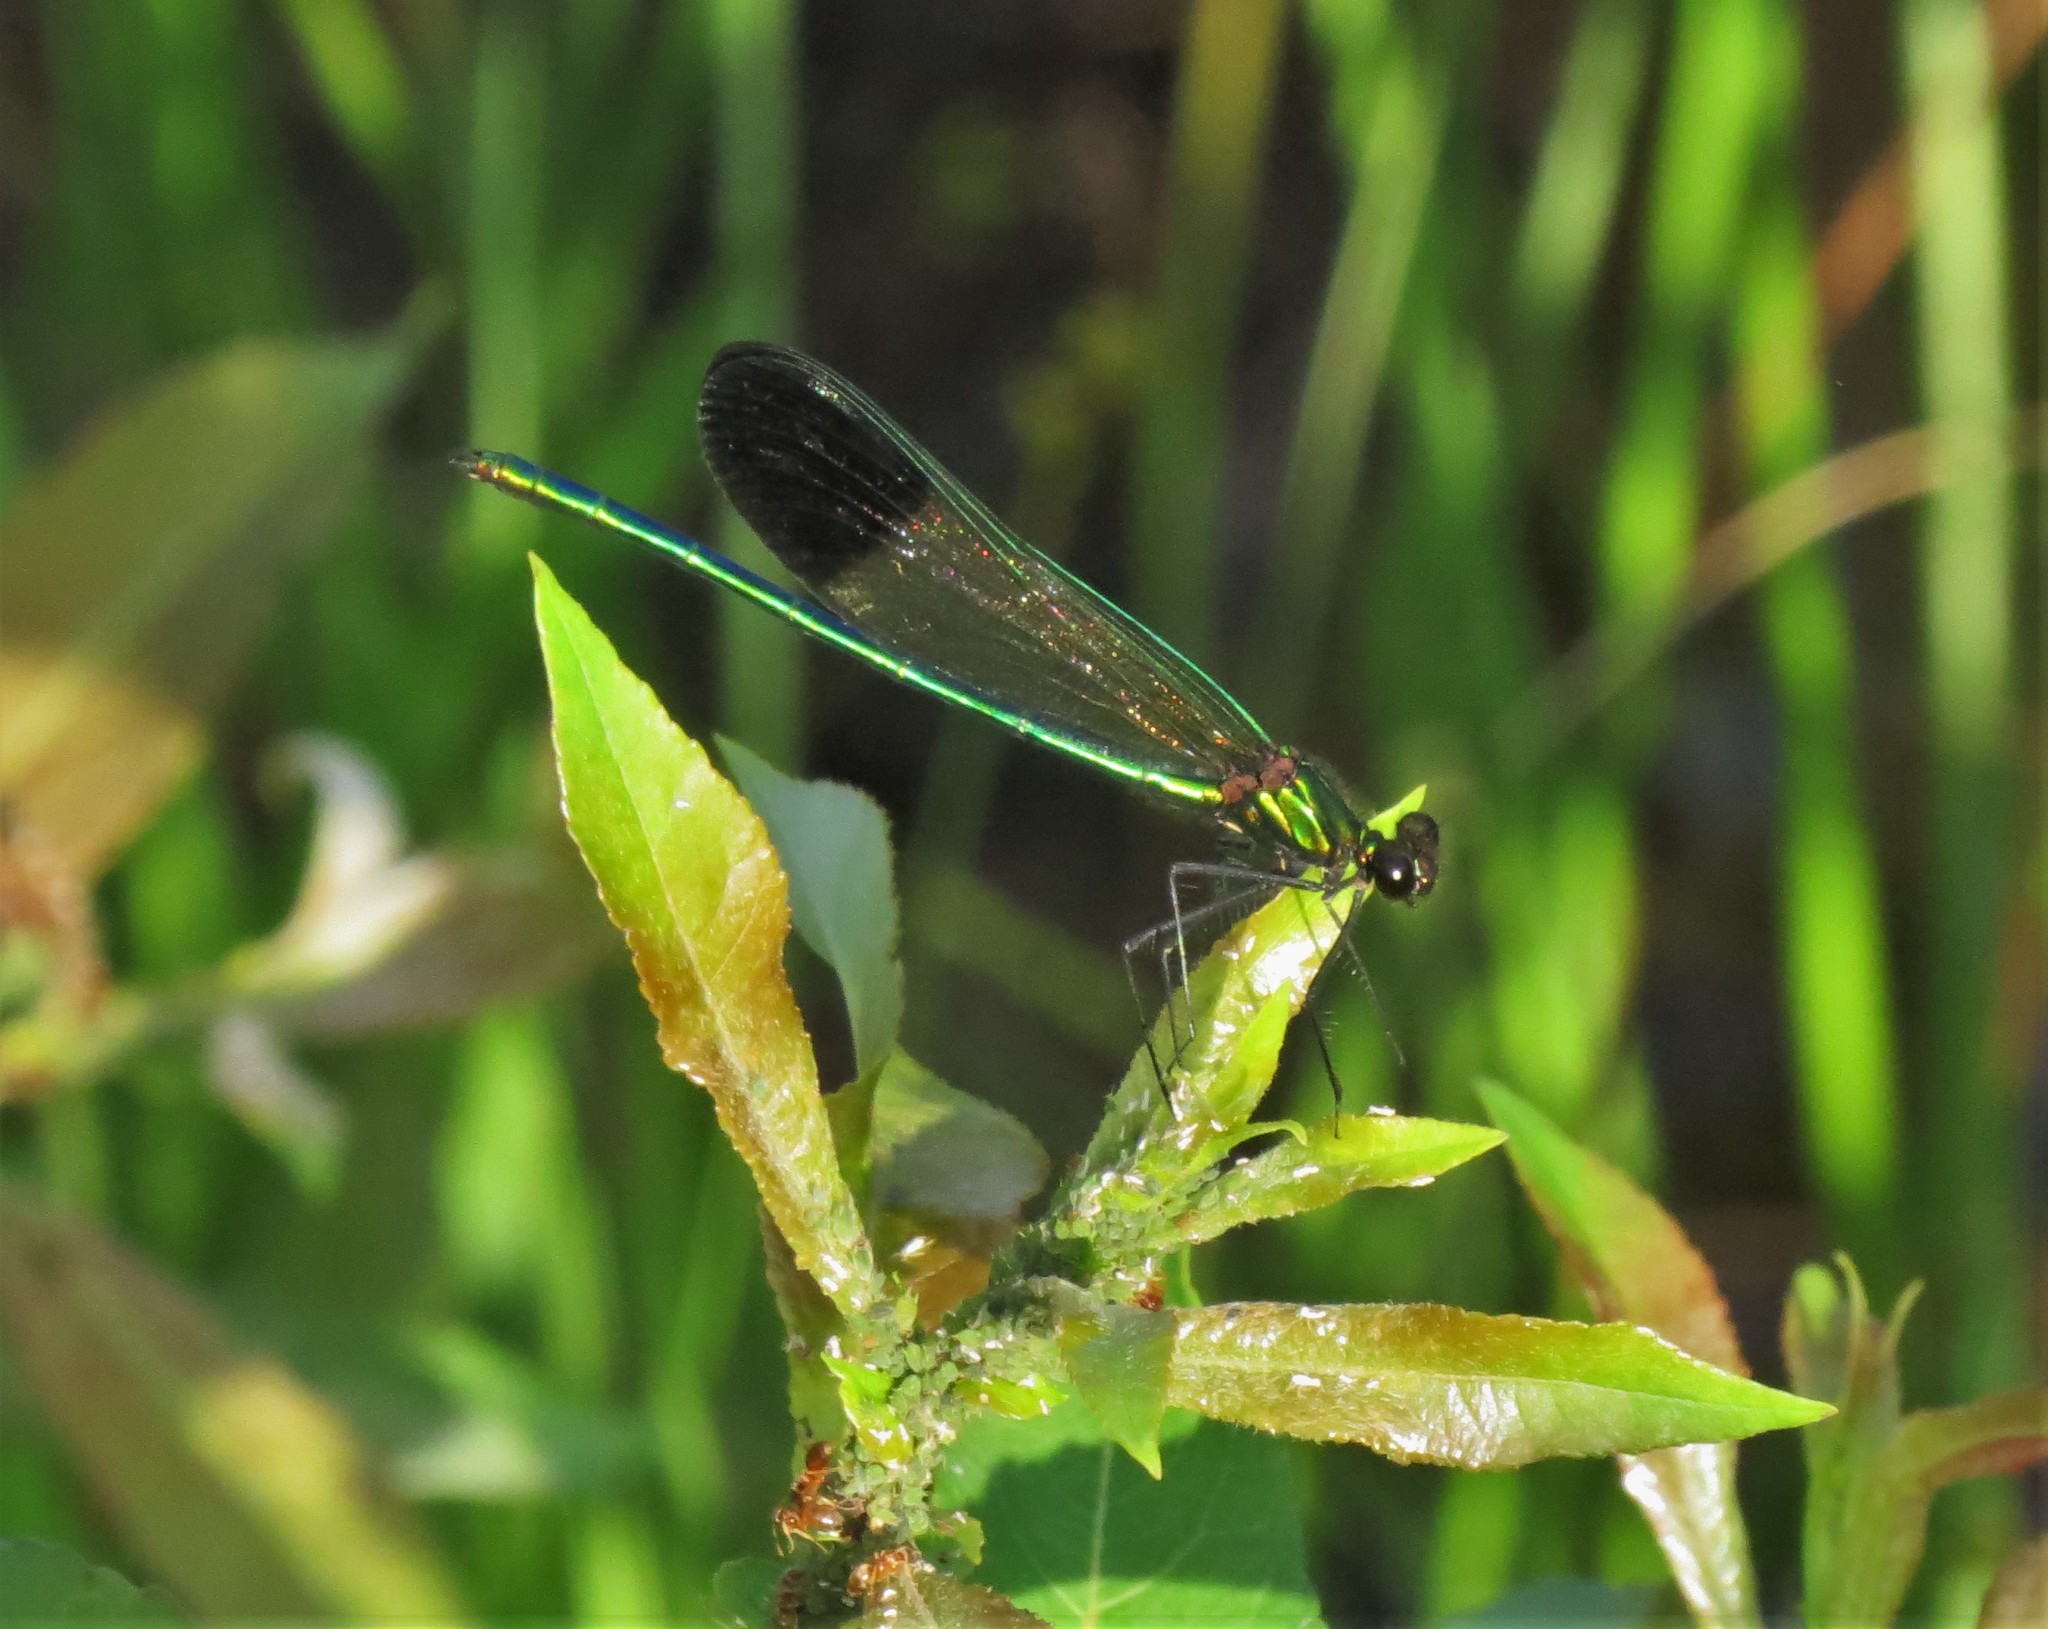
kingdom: Animalia
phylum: Arthropoda
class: Insecta
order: Odonata
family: Calopterygidae
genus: Calopteryx
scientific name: Calopteryx aequabilis
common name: River jewelwing
